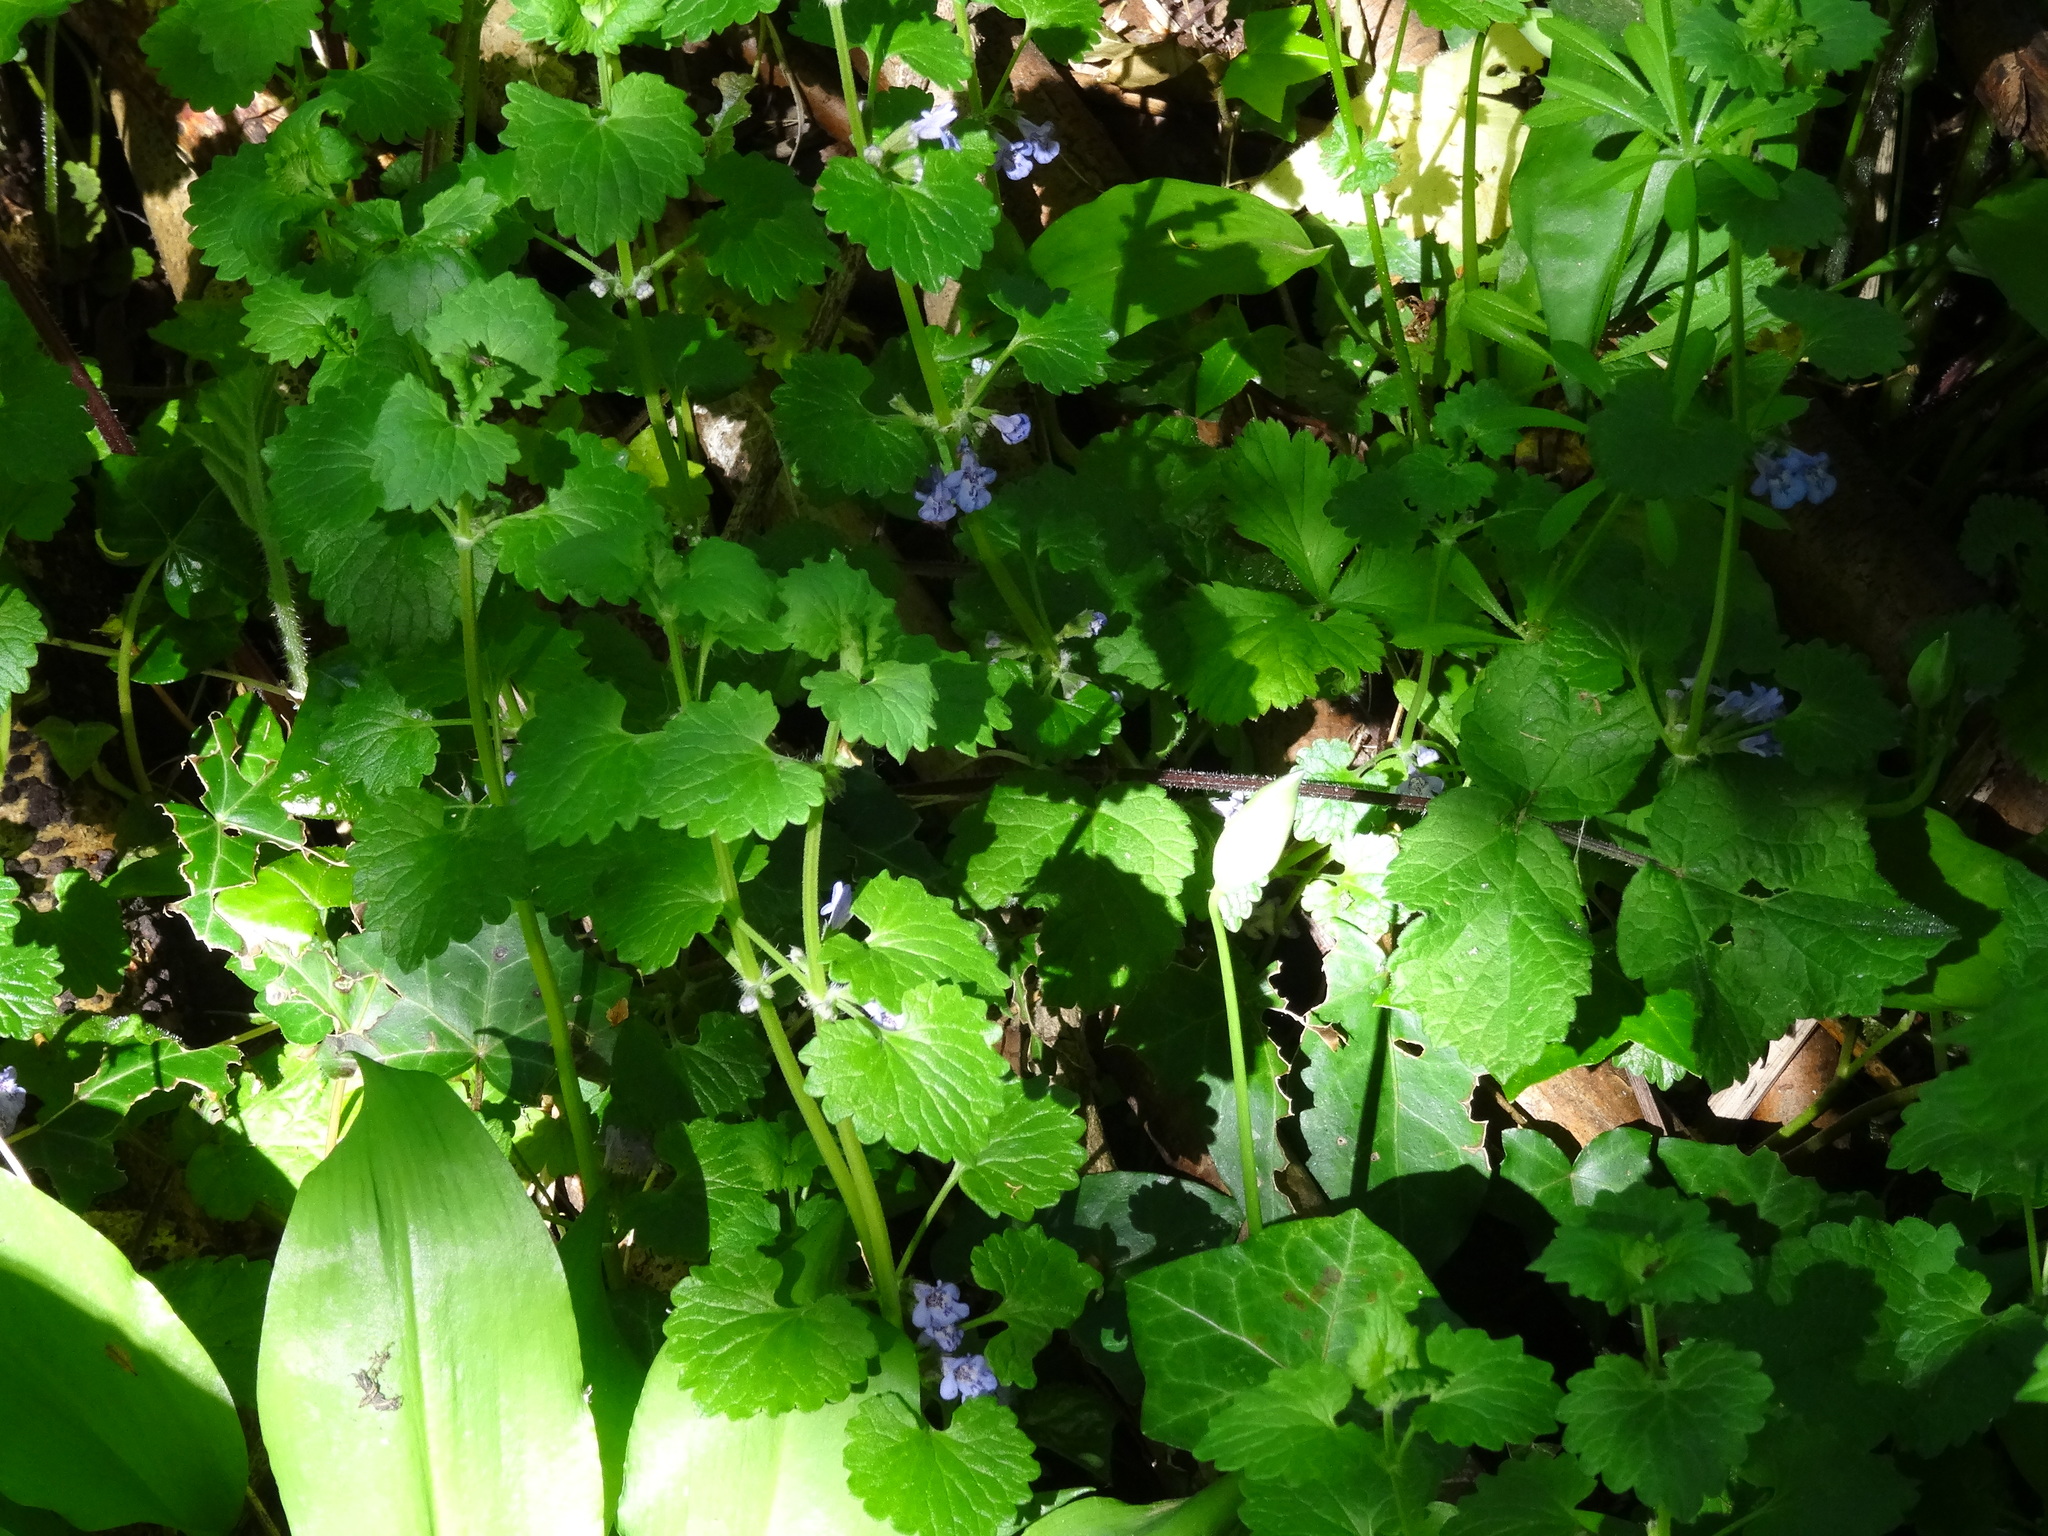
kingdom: Plantae
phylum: Tracheophyta
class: Magnoliopsida
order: Lamiales
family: Lamiaceae
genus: Glechoma
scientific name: Glechoma hederacea
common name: Ground ivy
